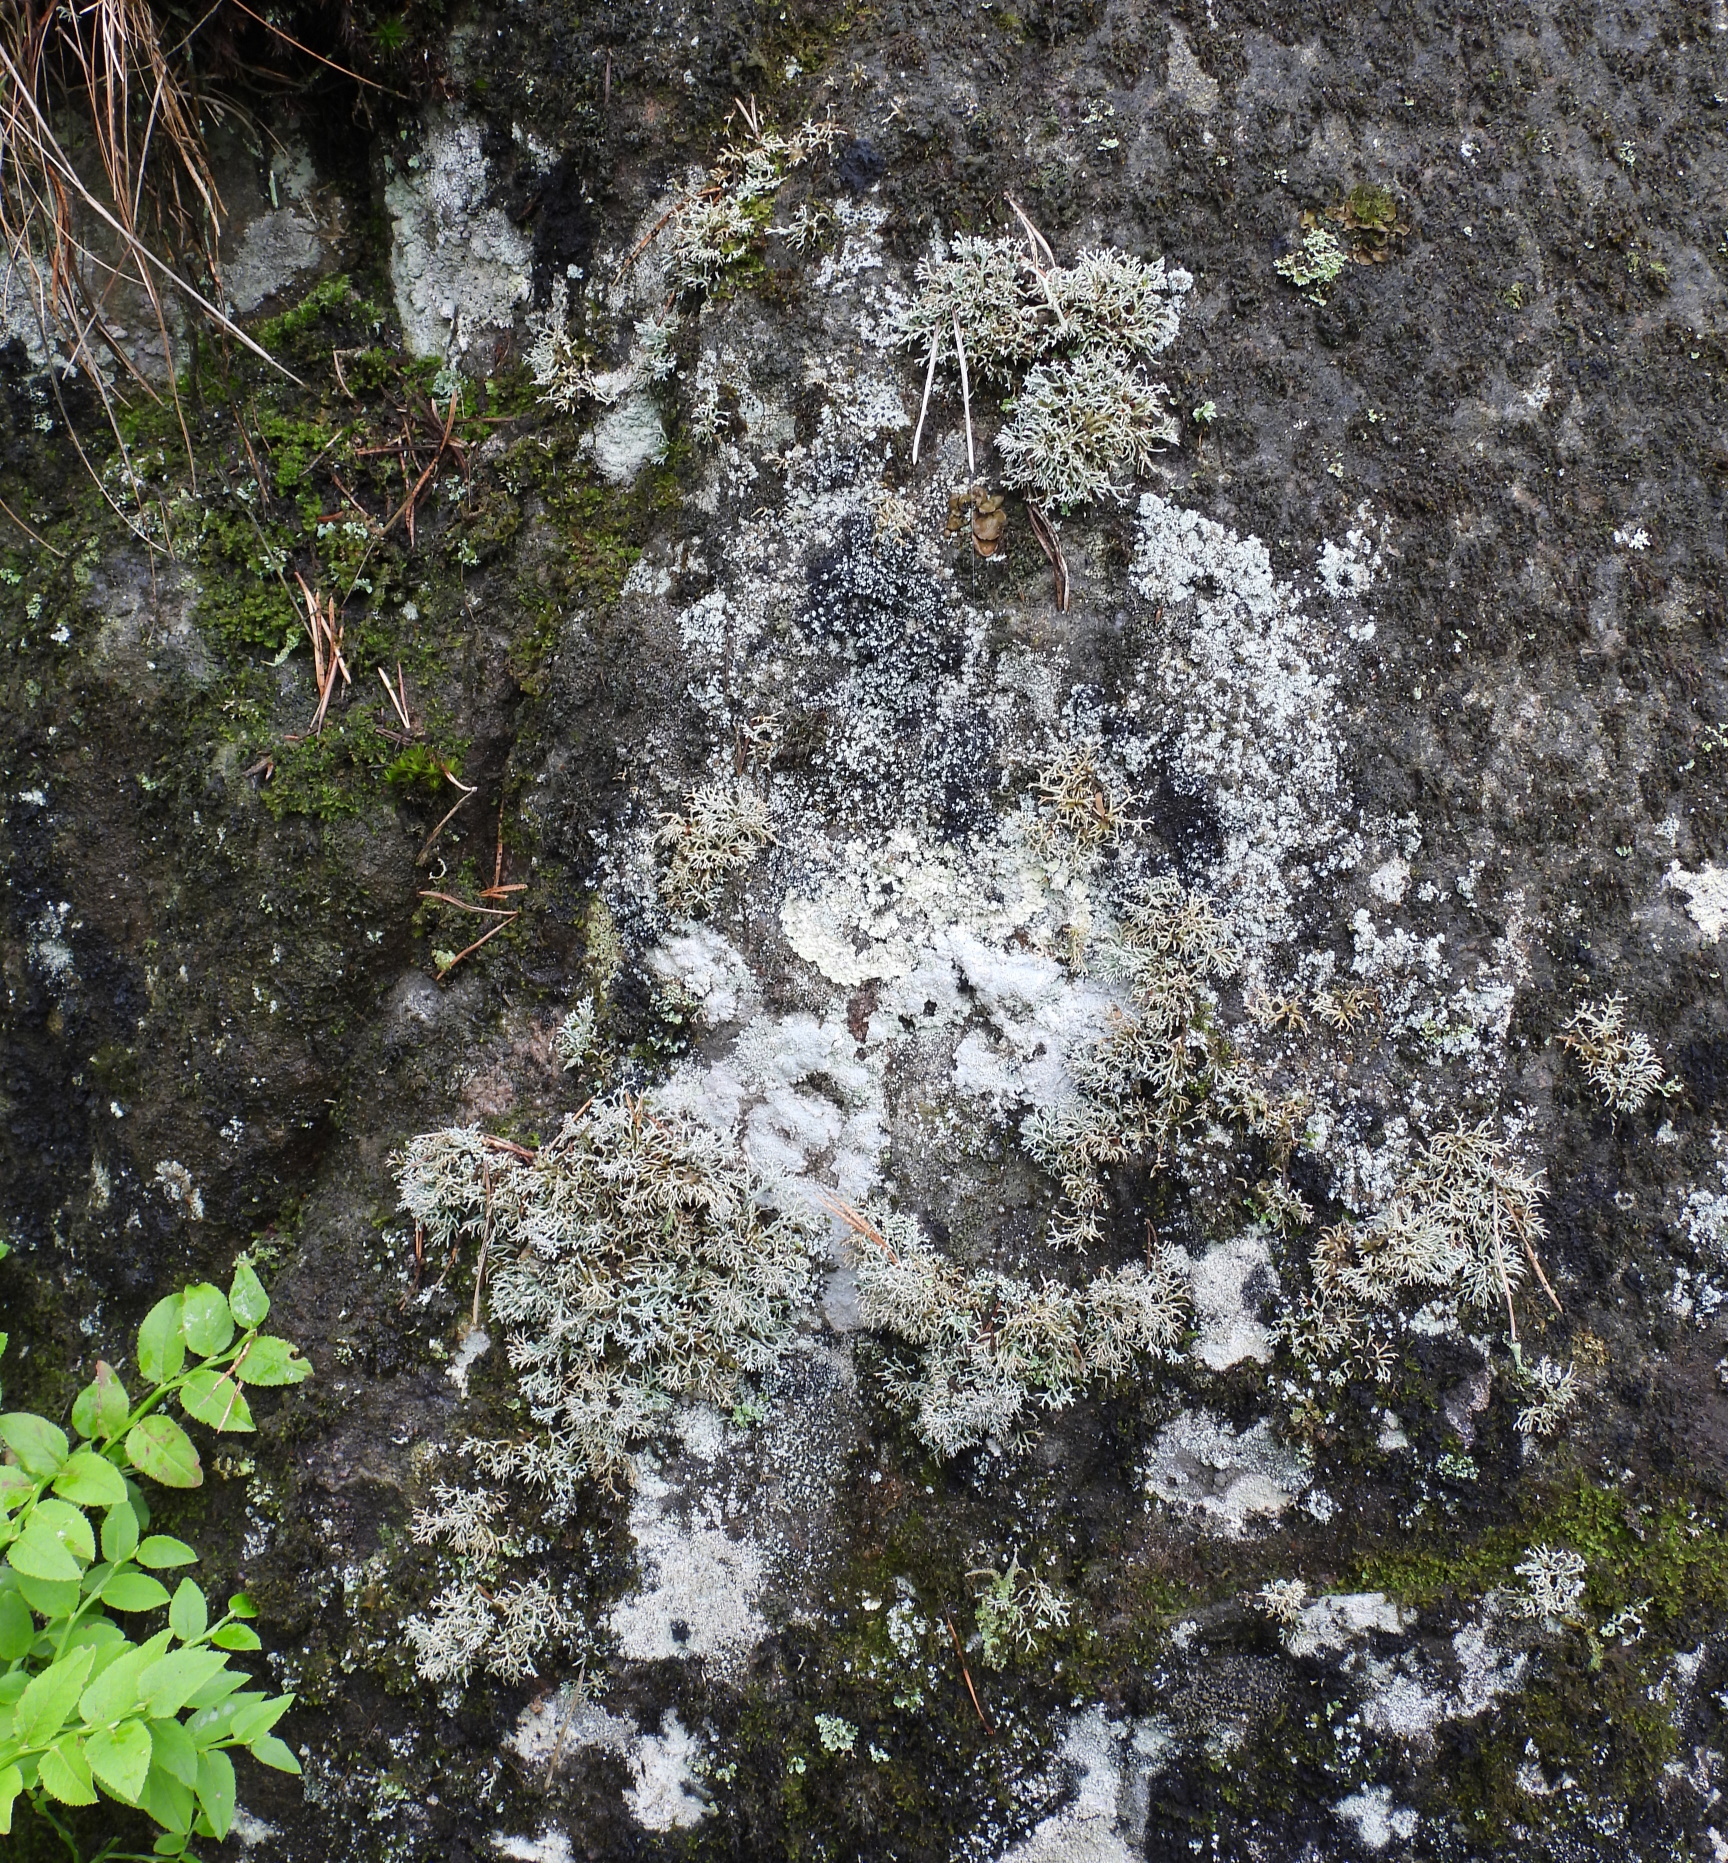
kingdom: Fungi
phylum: Ascomycota
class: Lecanoromycetes
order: Lecanorales
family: Sphaerophoraceae
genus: Sphaerophorus
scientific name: Sphaerophorus fragilis
